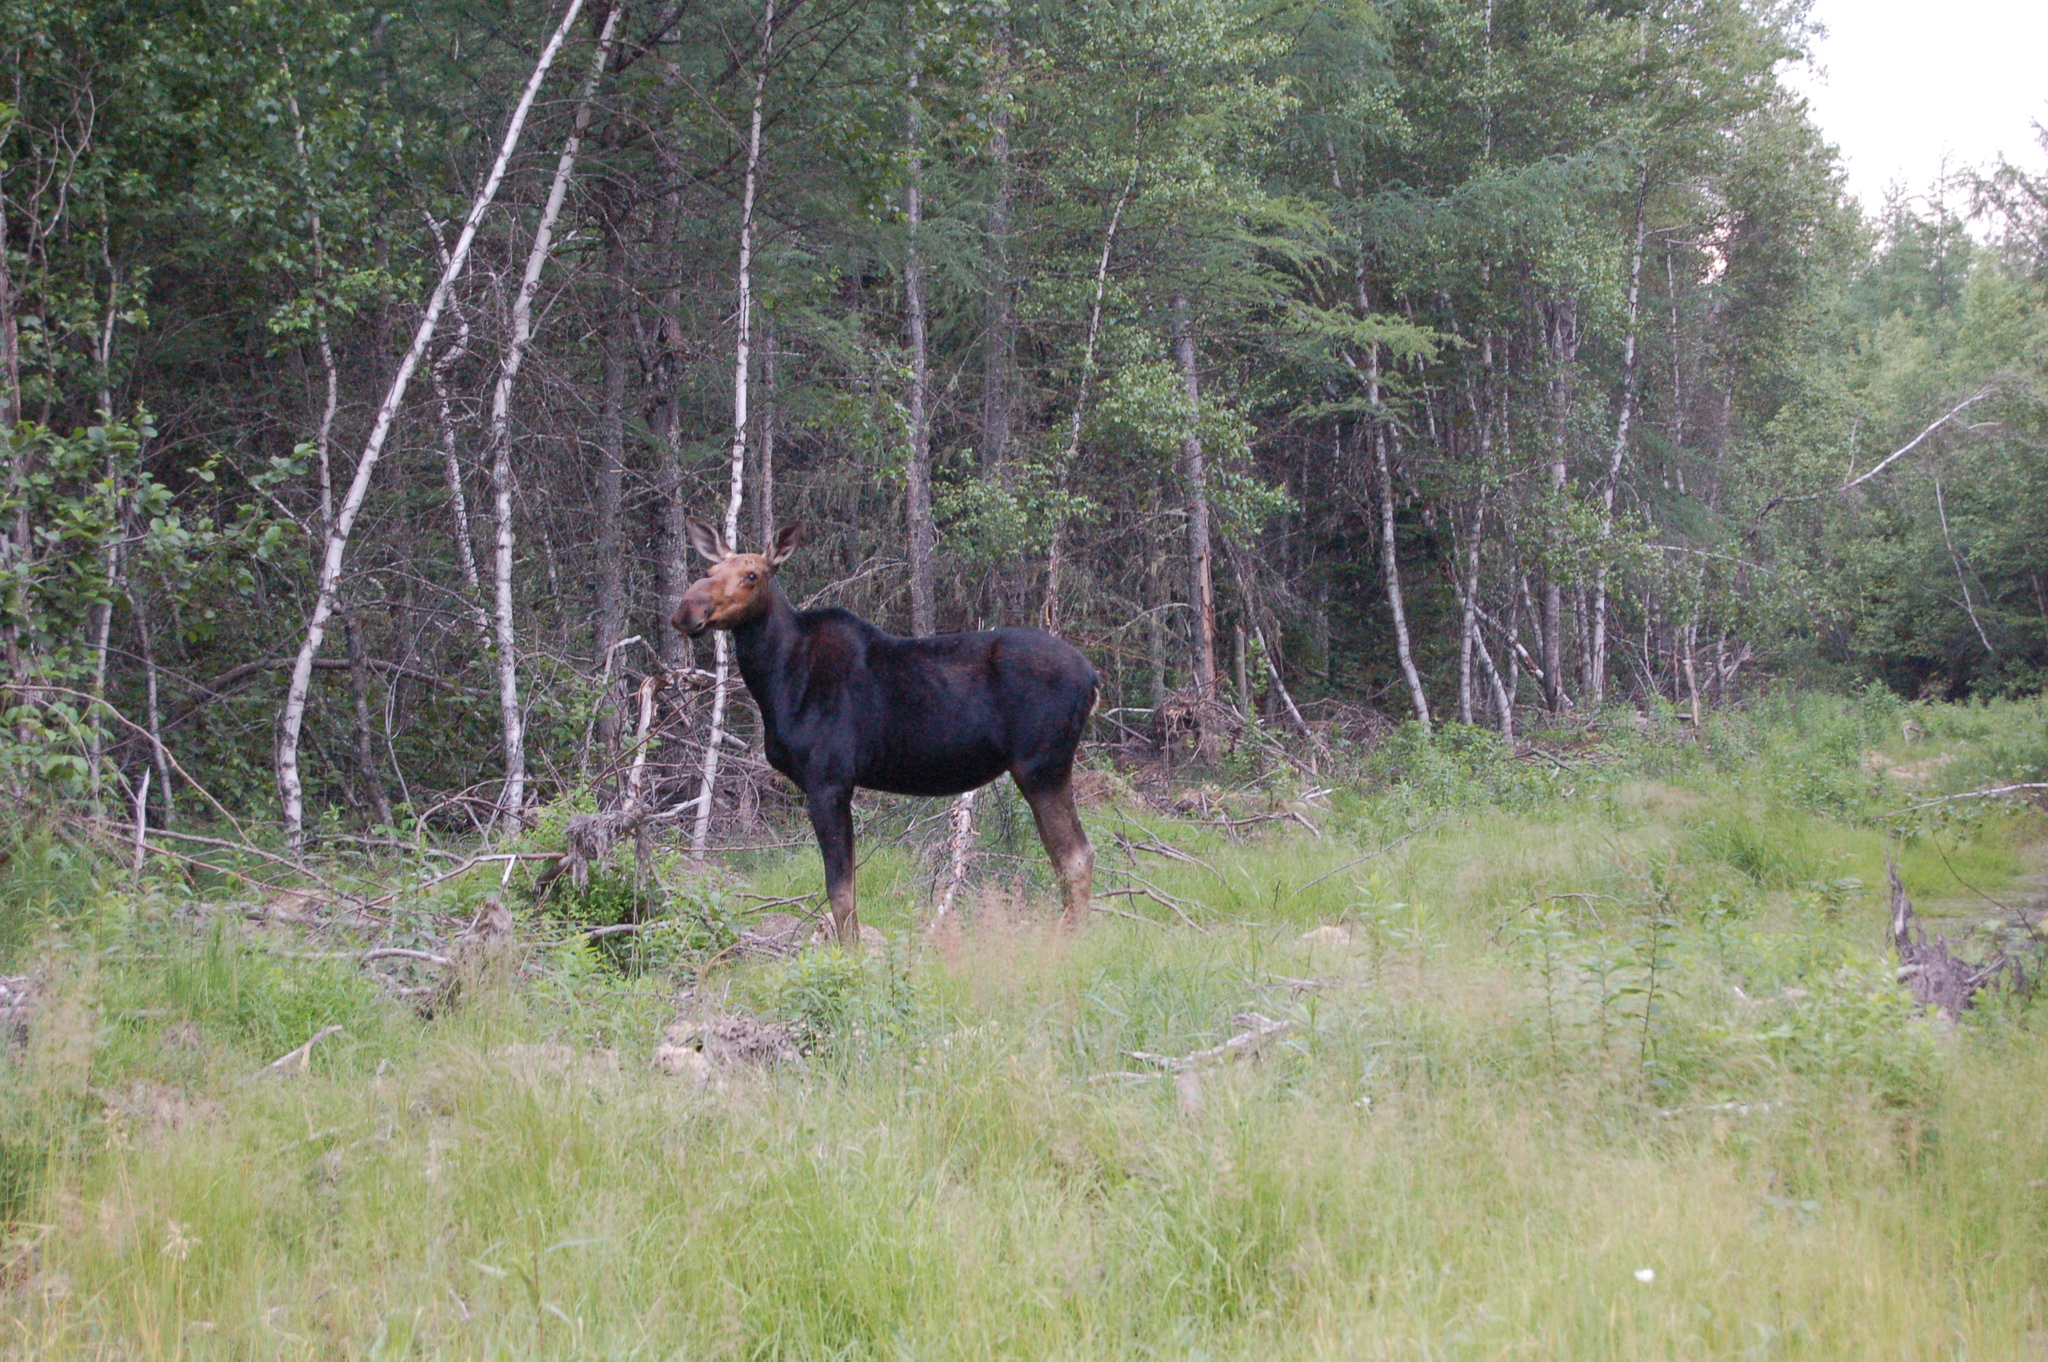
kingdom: Animalia
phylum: Chordata
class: Mammalia
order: Artiodactyla
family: Cervidae
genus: Alces
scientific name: Alces alces
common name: Moose
